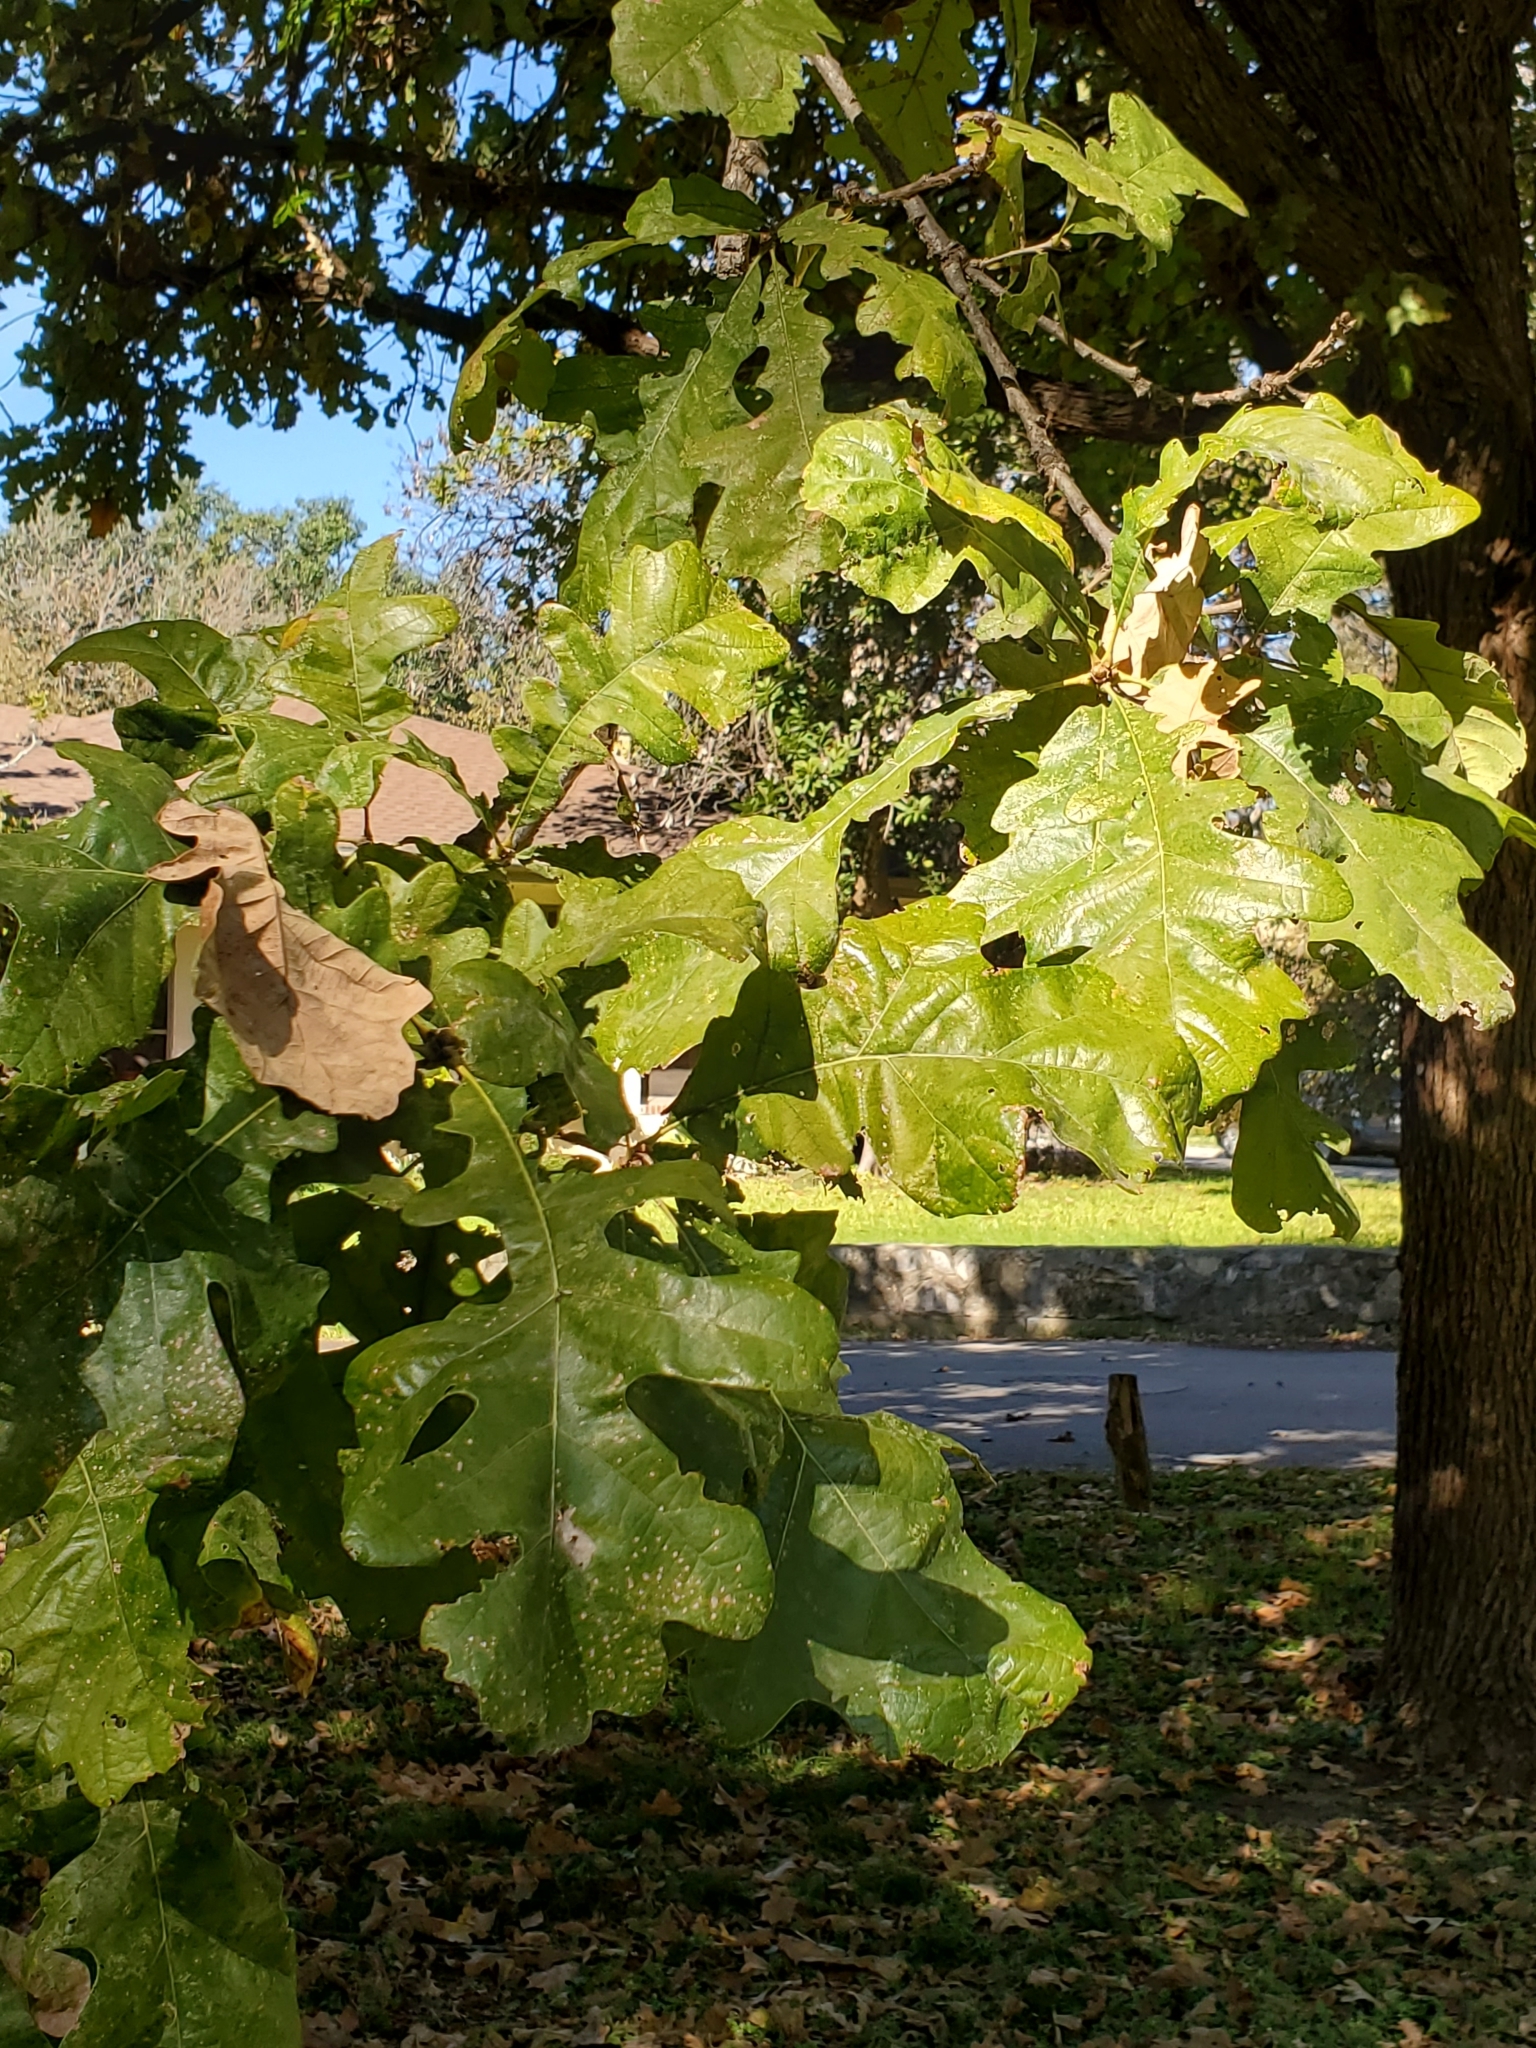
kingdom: Plantae
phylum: Tracheophyta
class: Magnoliopsida
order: Fagales
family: Fagaceae
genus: Quercus
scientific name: Quercus macrocarpa
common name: Bur oak
